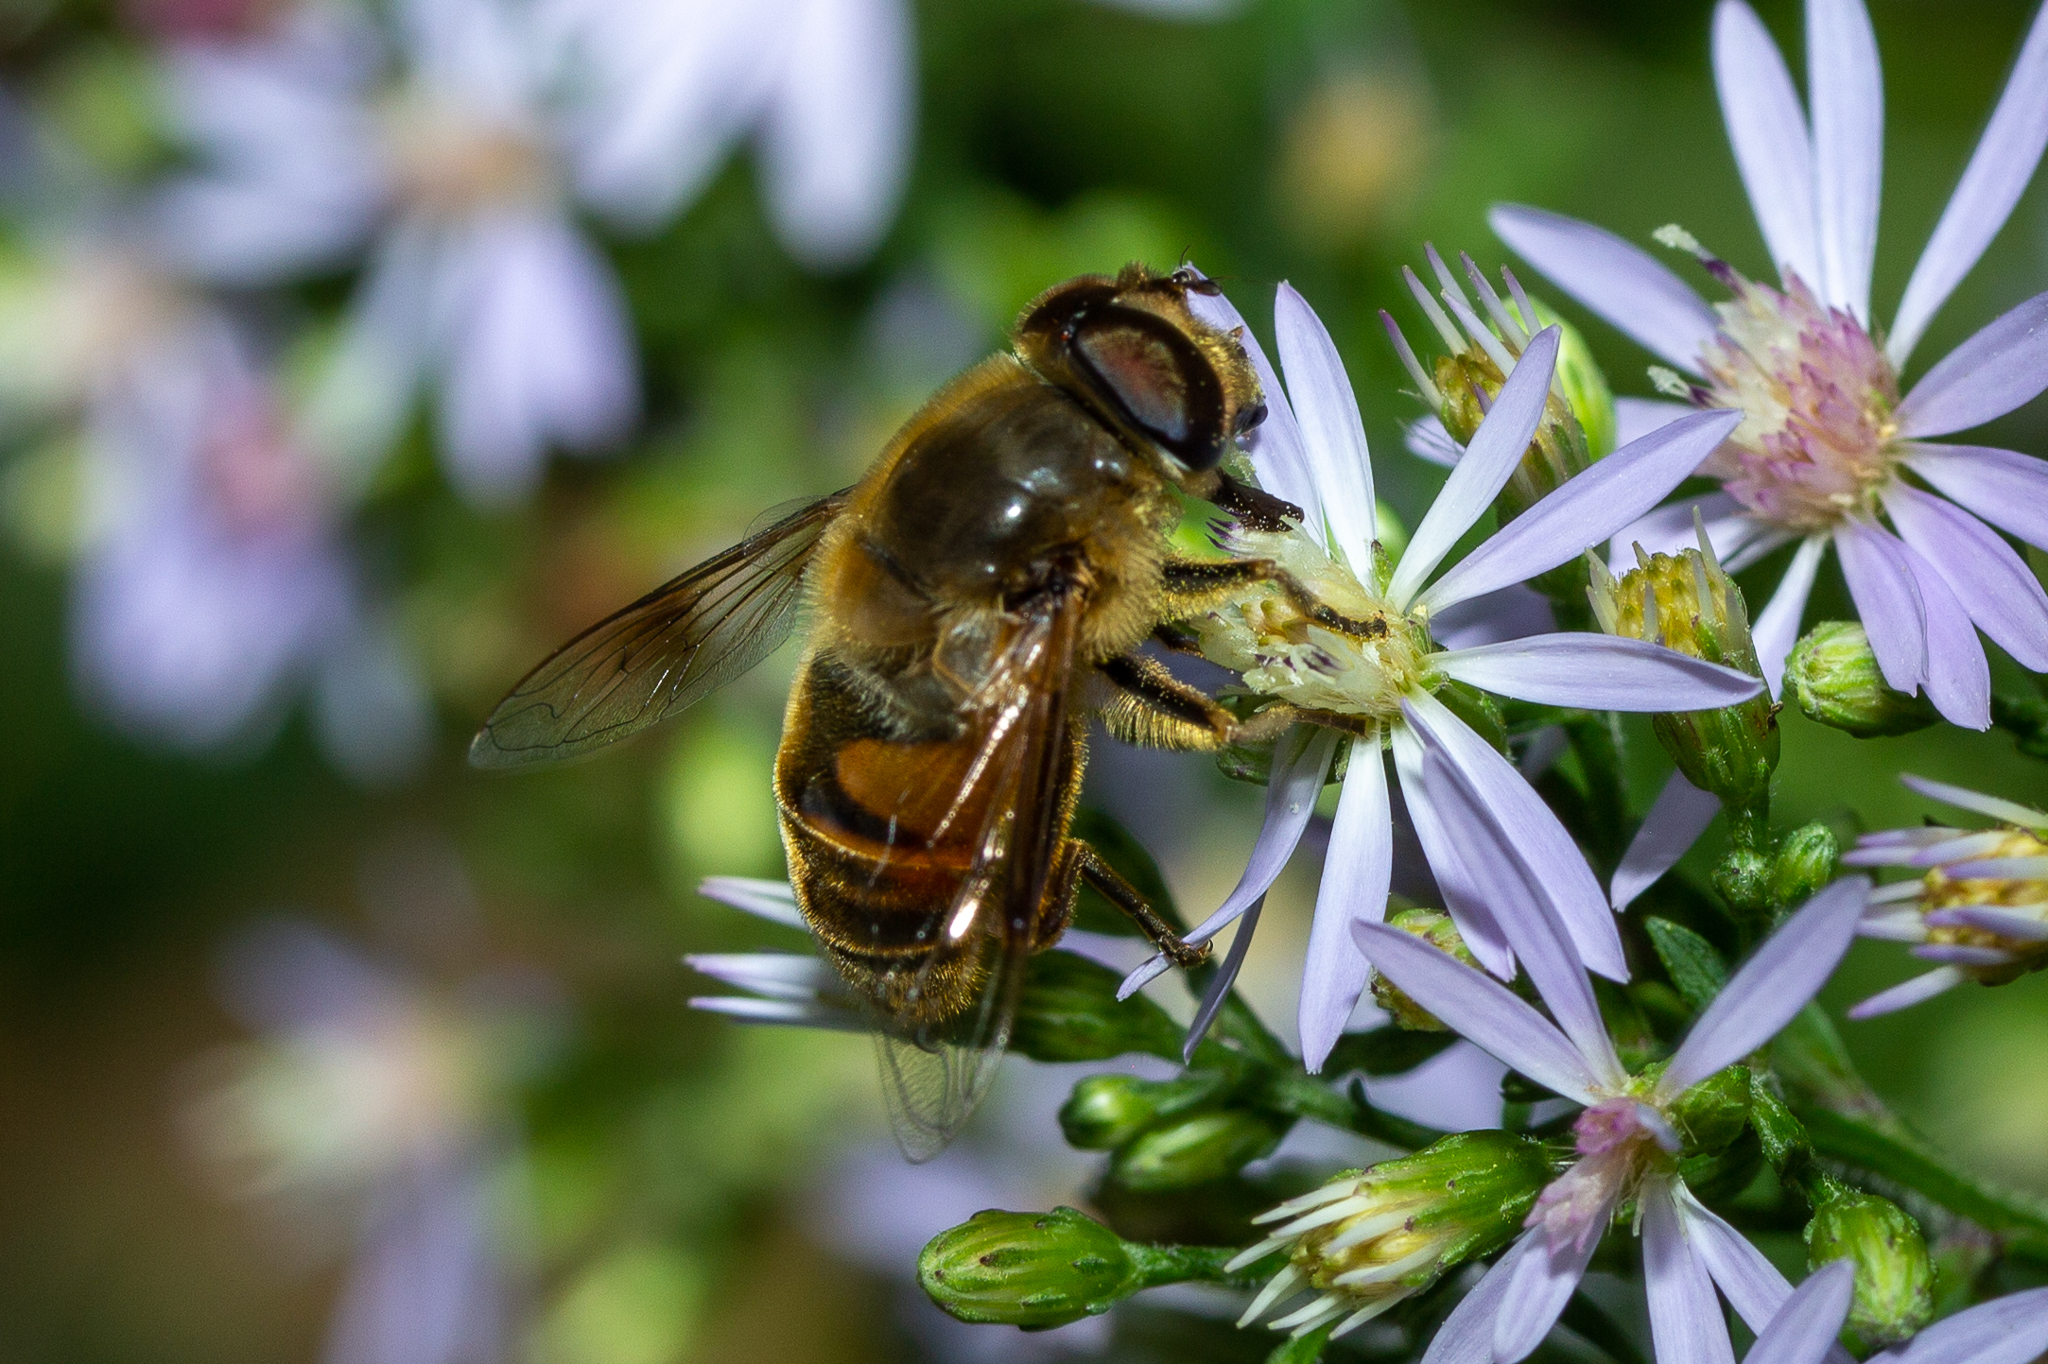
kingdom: Animalia
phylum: Arthropoda
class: Insecta
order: Diptera
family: Syrphidae
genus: Eristalis
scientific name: Eristalis tenax
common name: Drone fly
